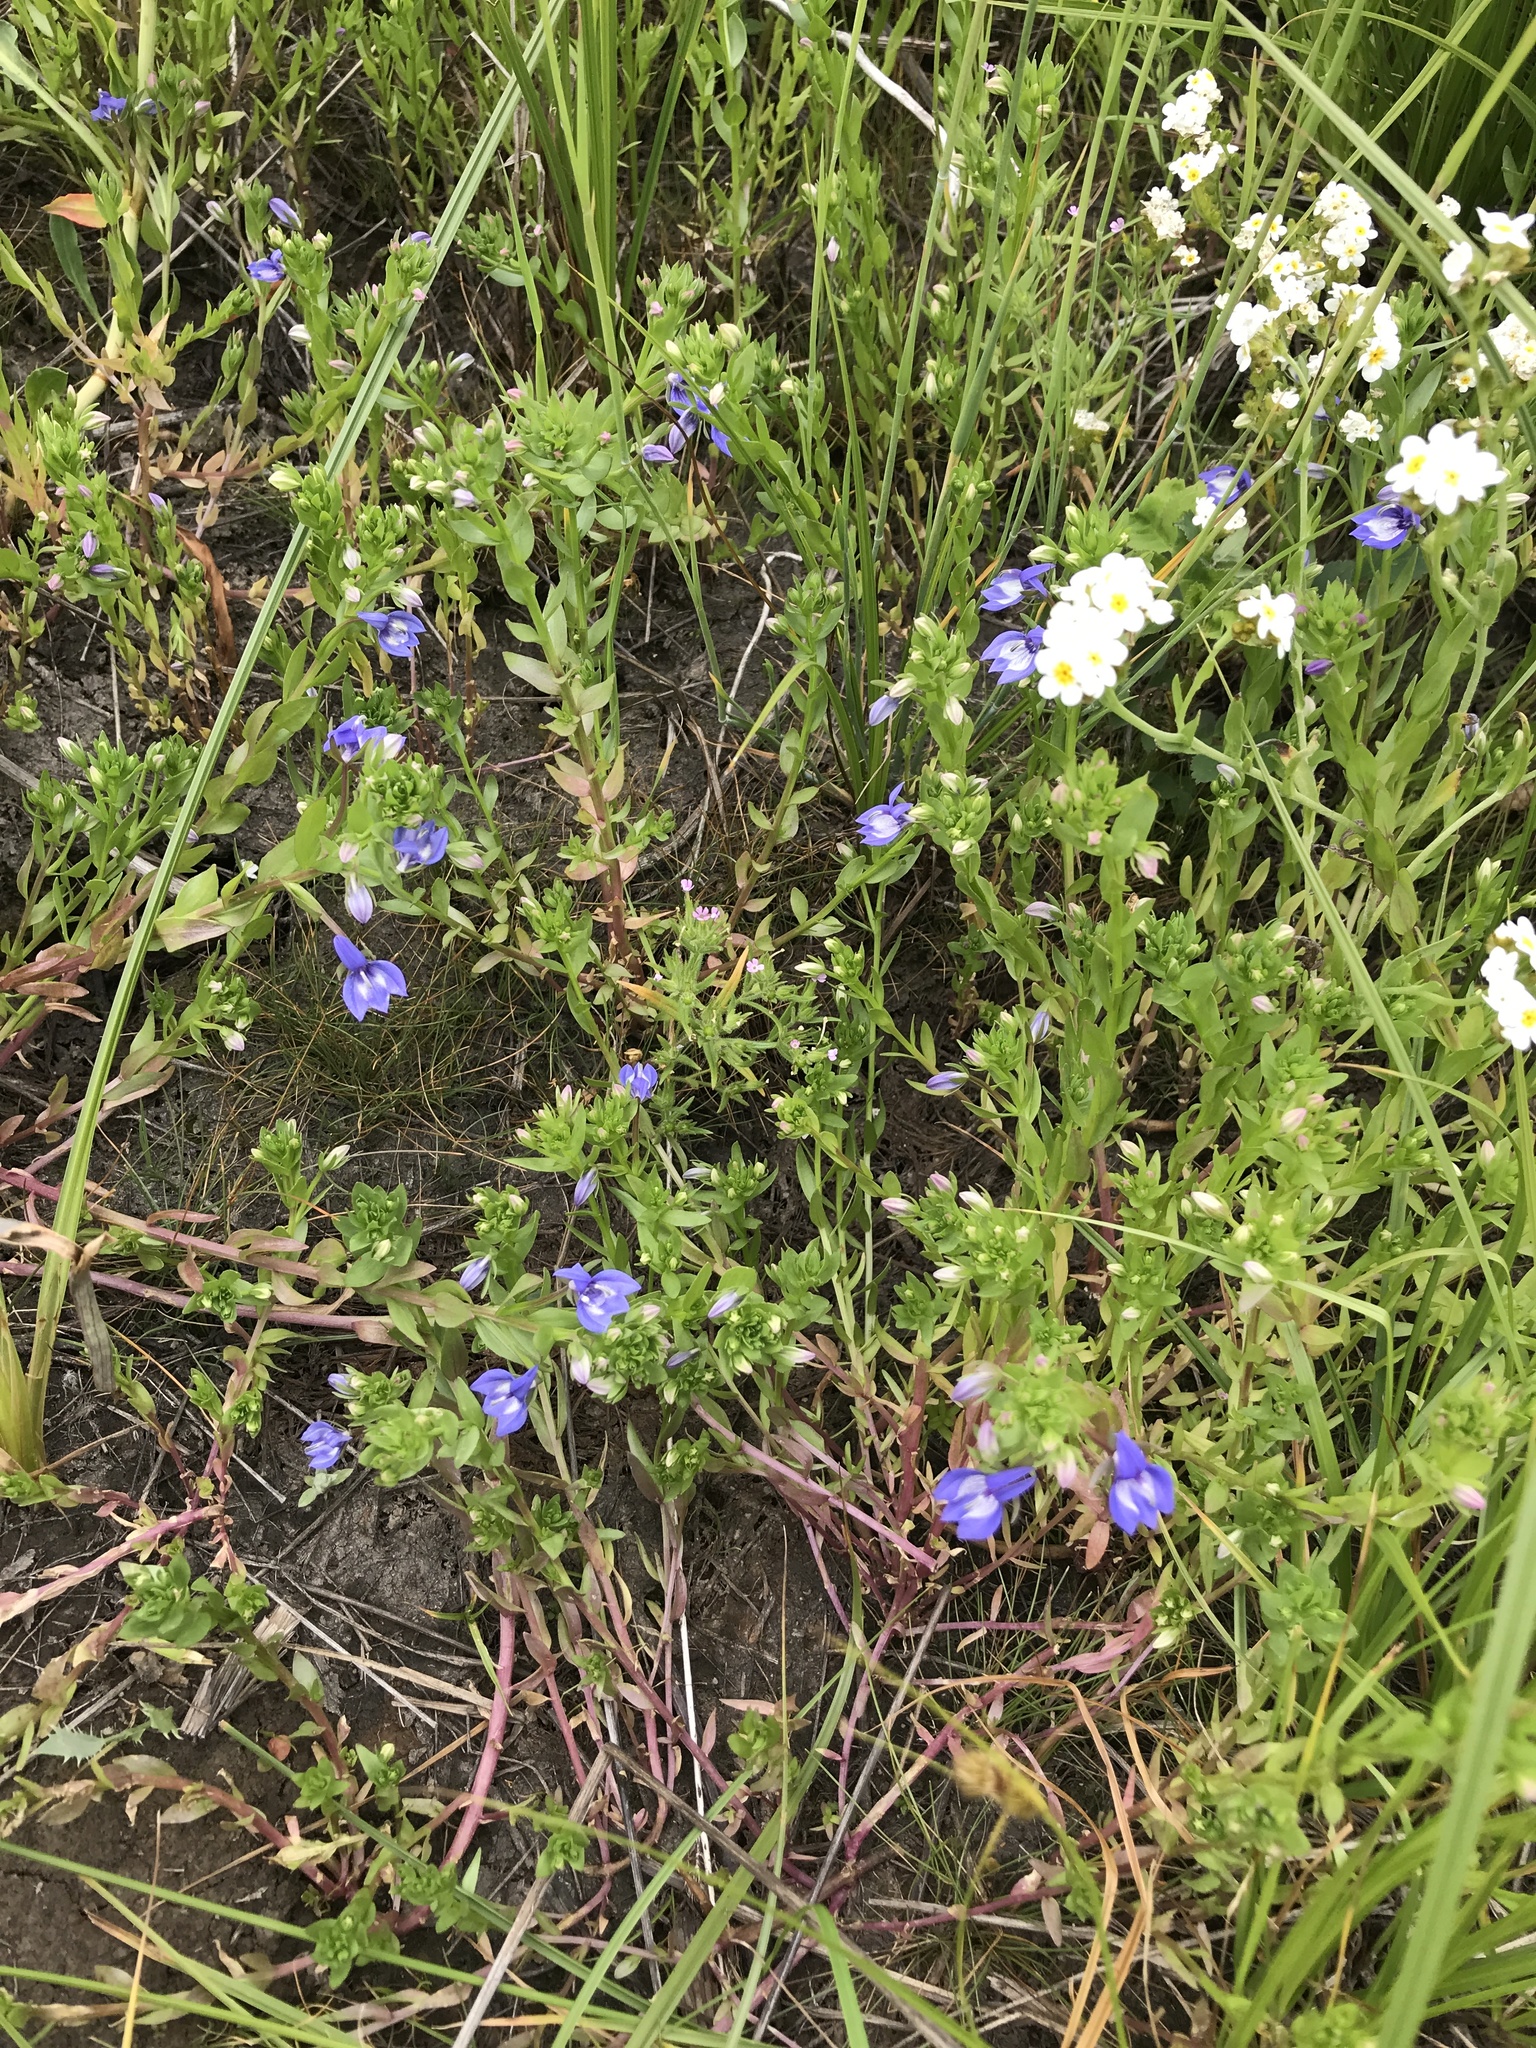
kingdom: Plantae
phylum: Tracheophyta
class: Magnoliopsida
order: Asterales
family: Campanulaceae
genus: Downingia
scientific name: Downingia elegans
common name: Californian lobelia
